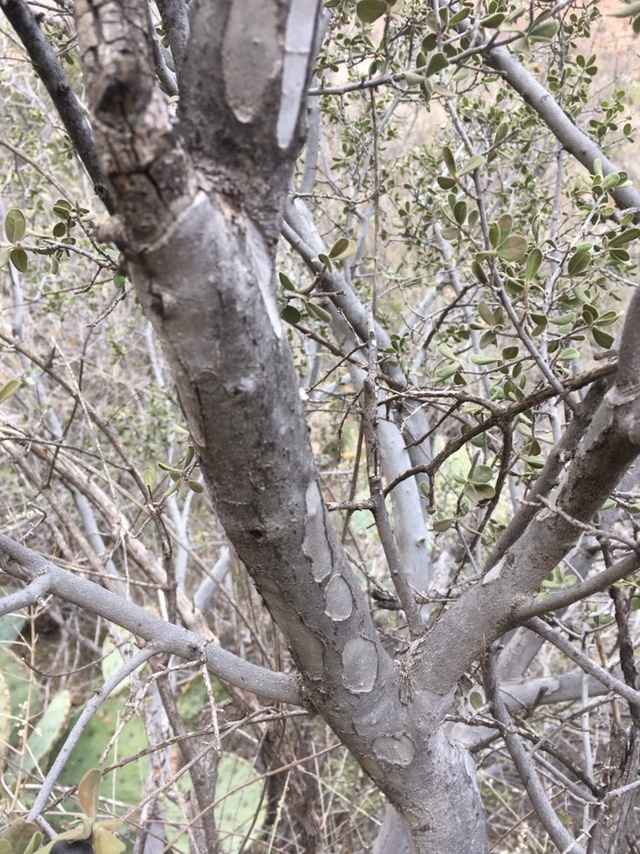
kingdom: Plantae
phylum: Tracheophyta
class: Magnoliopsida
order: Ericales
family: Ebenaceae
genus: Diospyros
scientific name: Diospyros texana
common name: Texas persimmon
